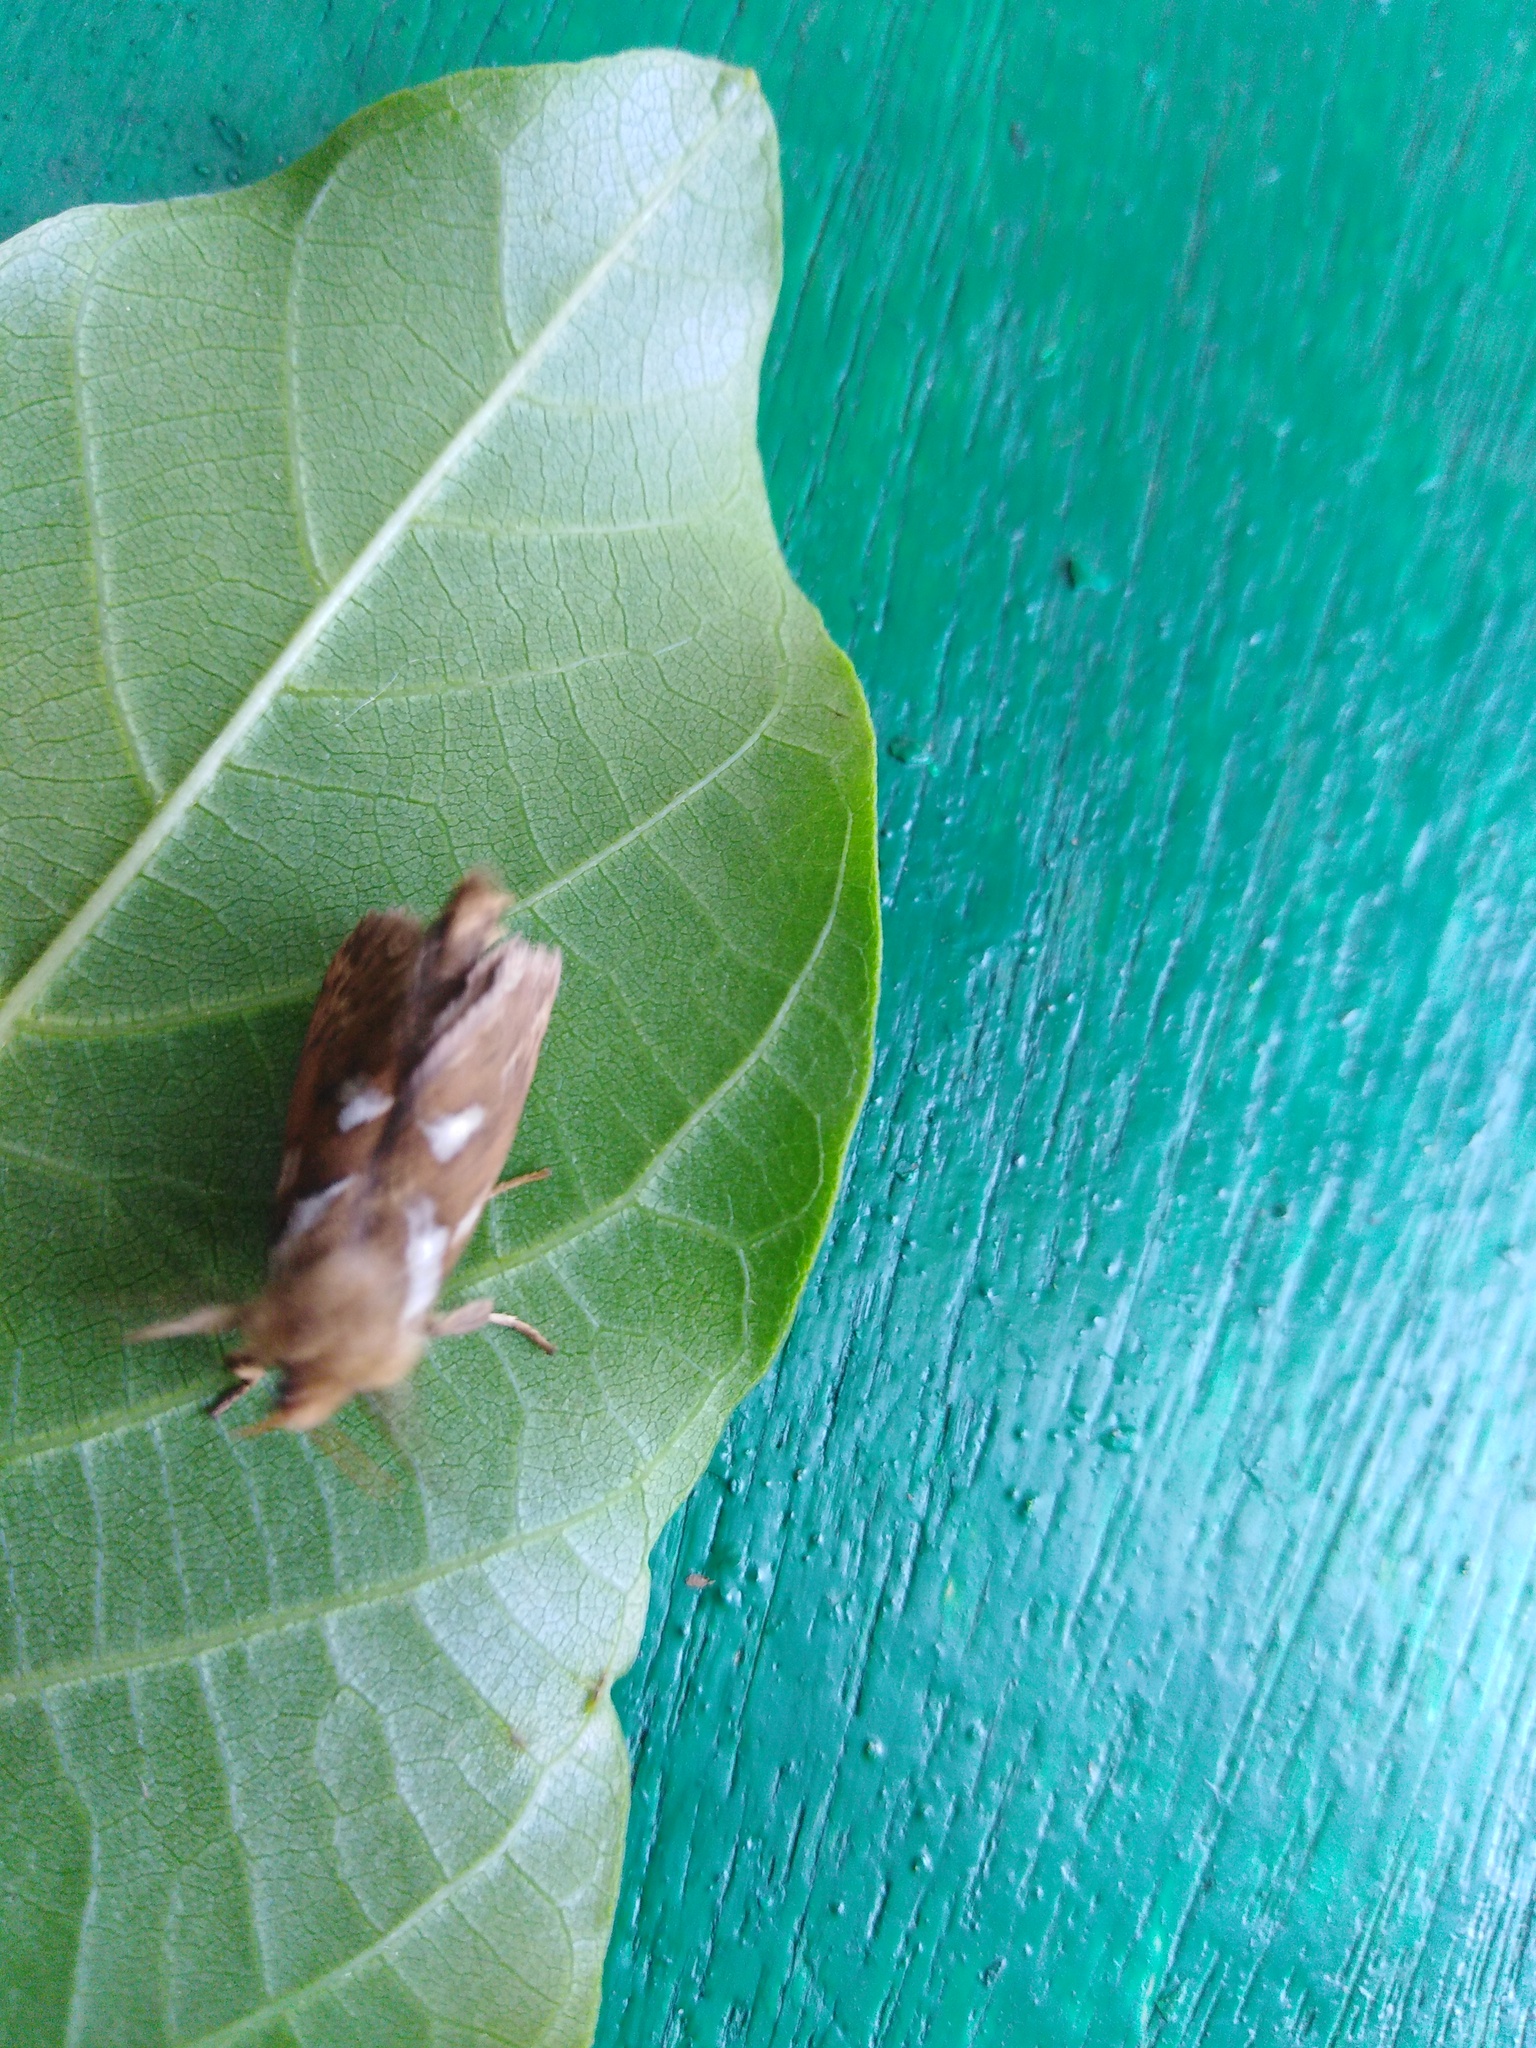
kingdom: Animalia
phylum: Arthropoda
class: Insecta
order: Lepidoptera
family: Hepialidae
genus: Korscheltellus
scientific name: Korscheltellus lupulina
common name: Common swift
